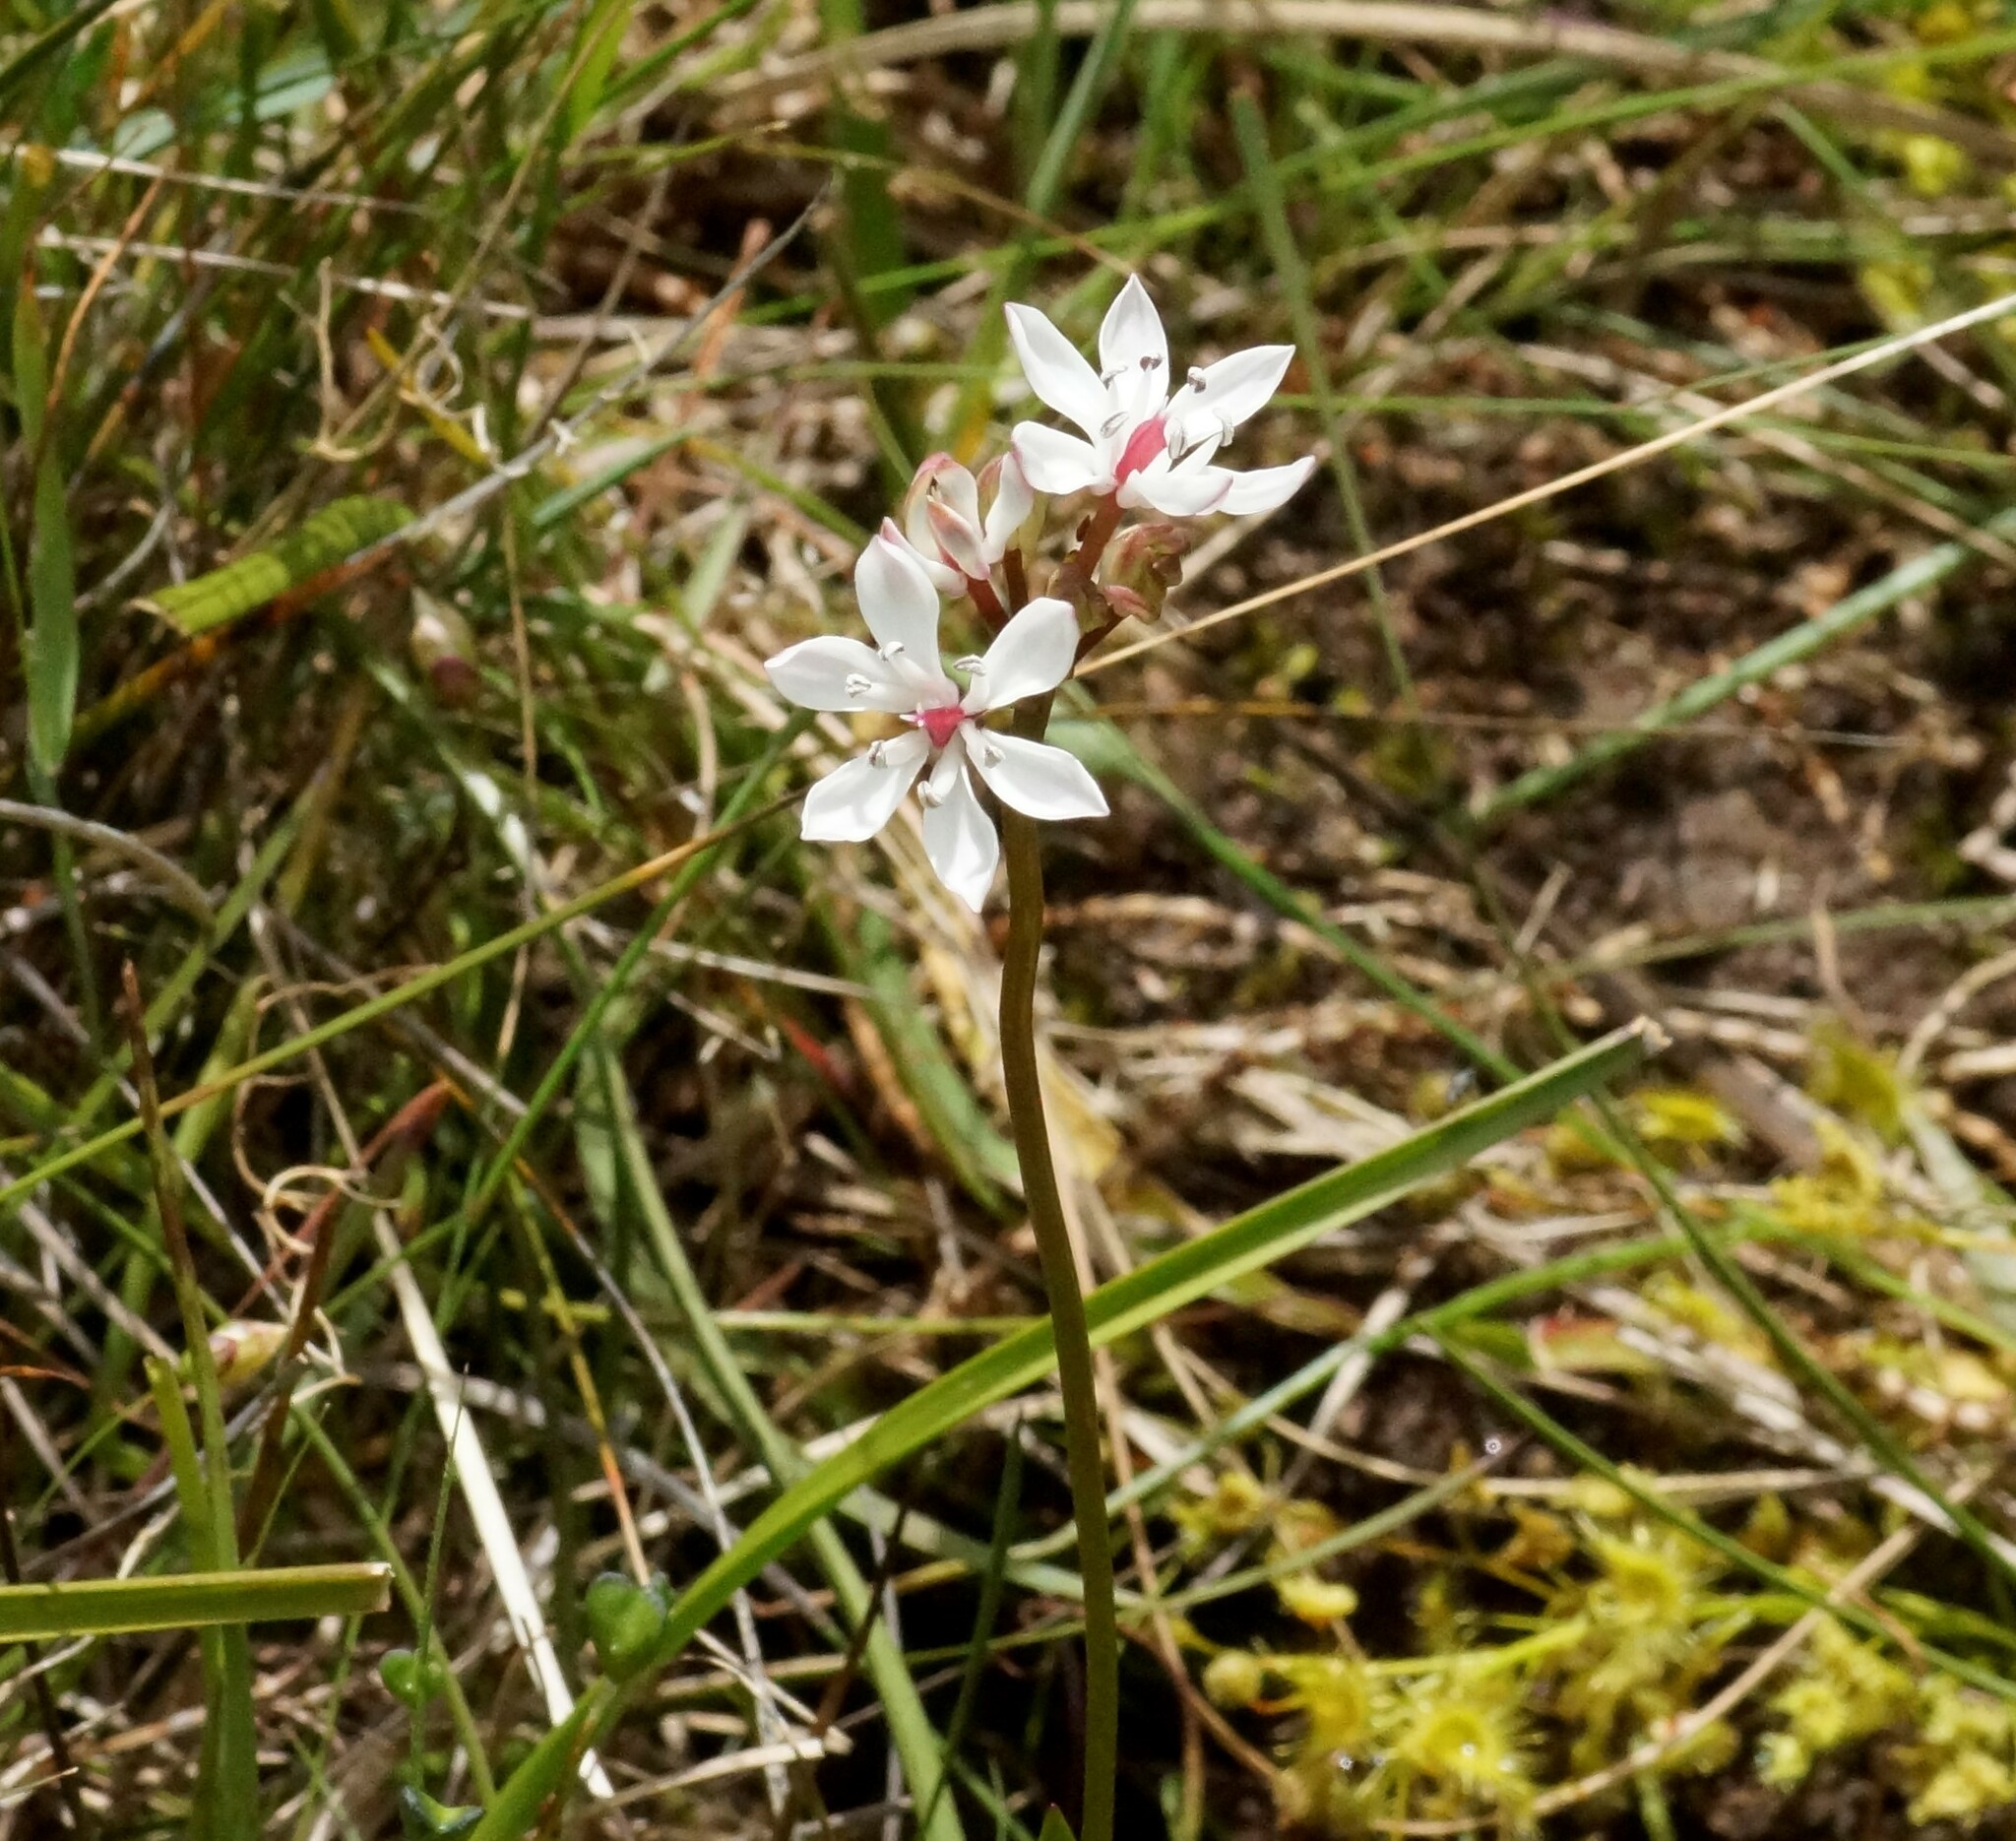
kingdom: Plantae
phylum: Tracheophyta
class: Liliopsida
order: Liliales
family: Colchicaceae
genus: Burchardia
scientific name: Burchardia umbellata
